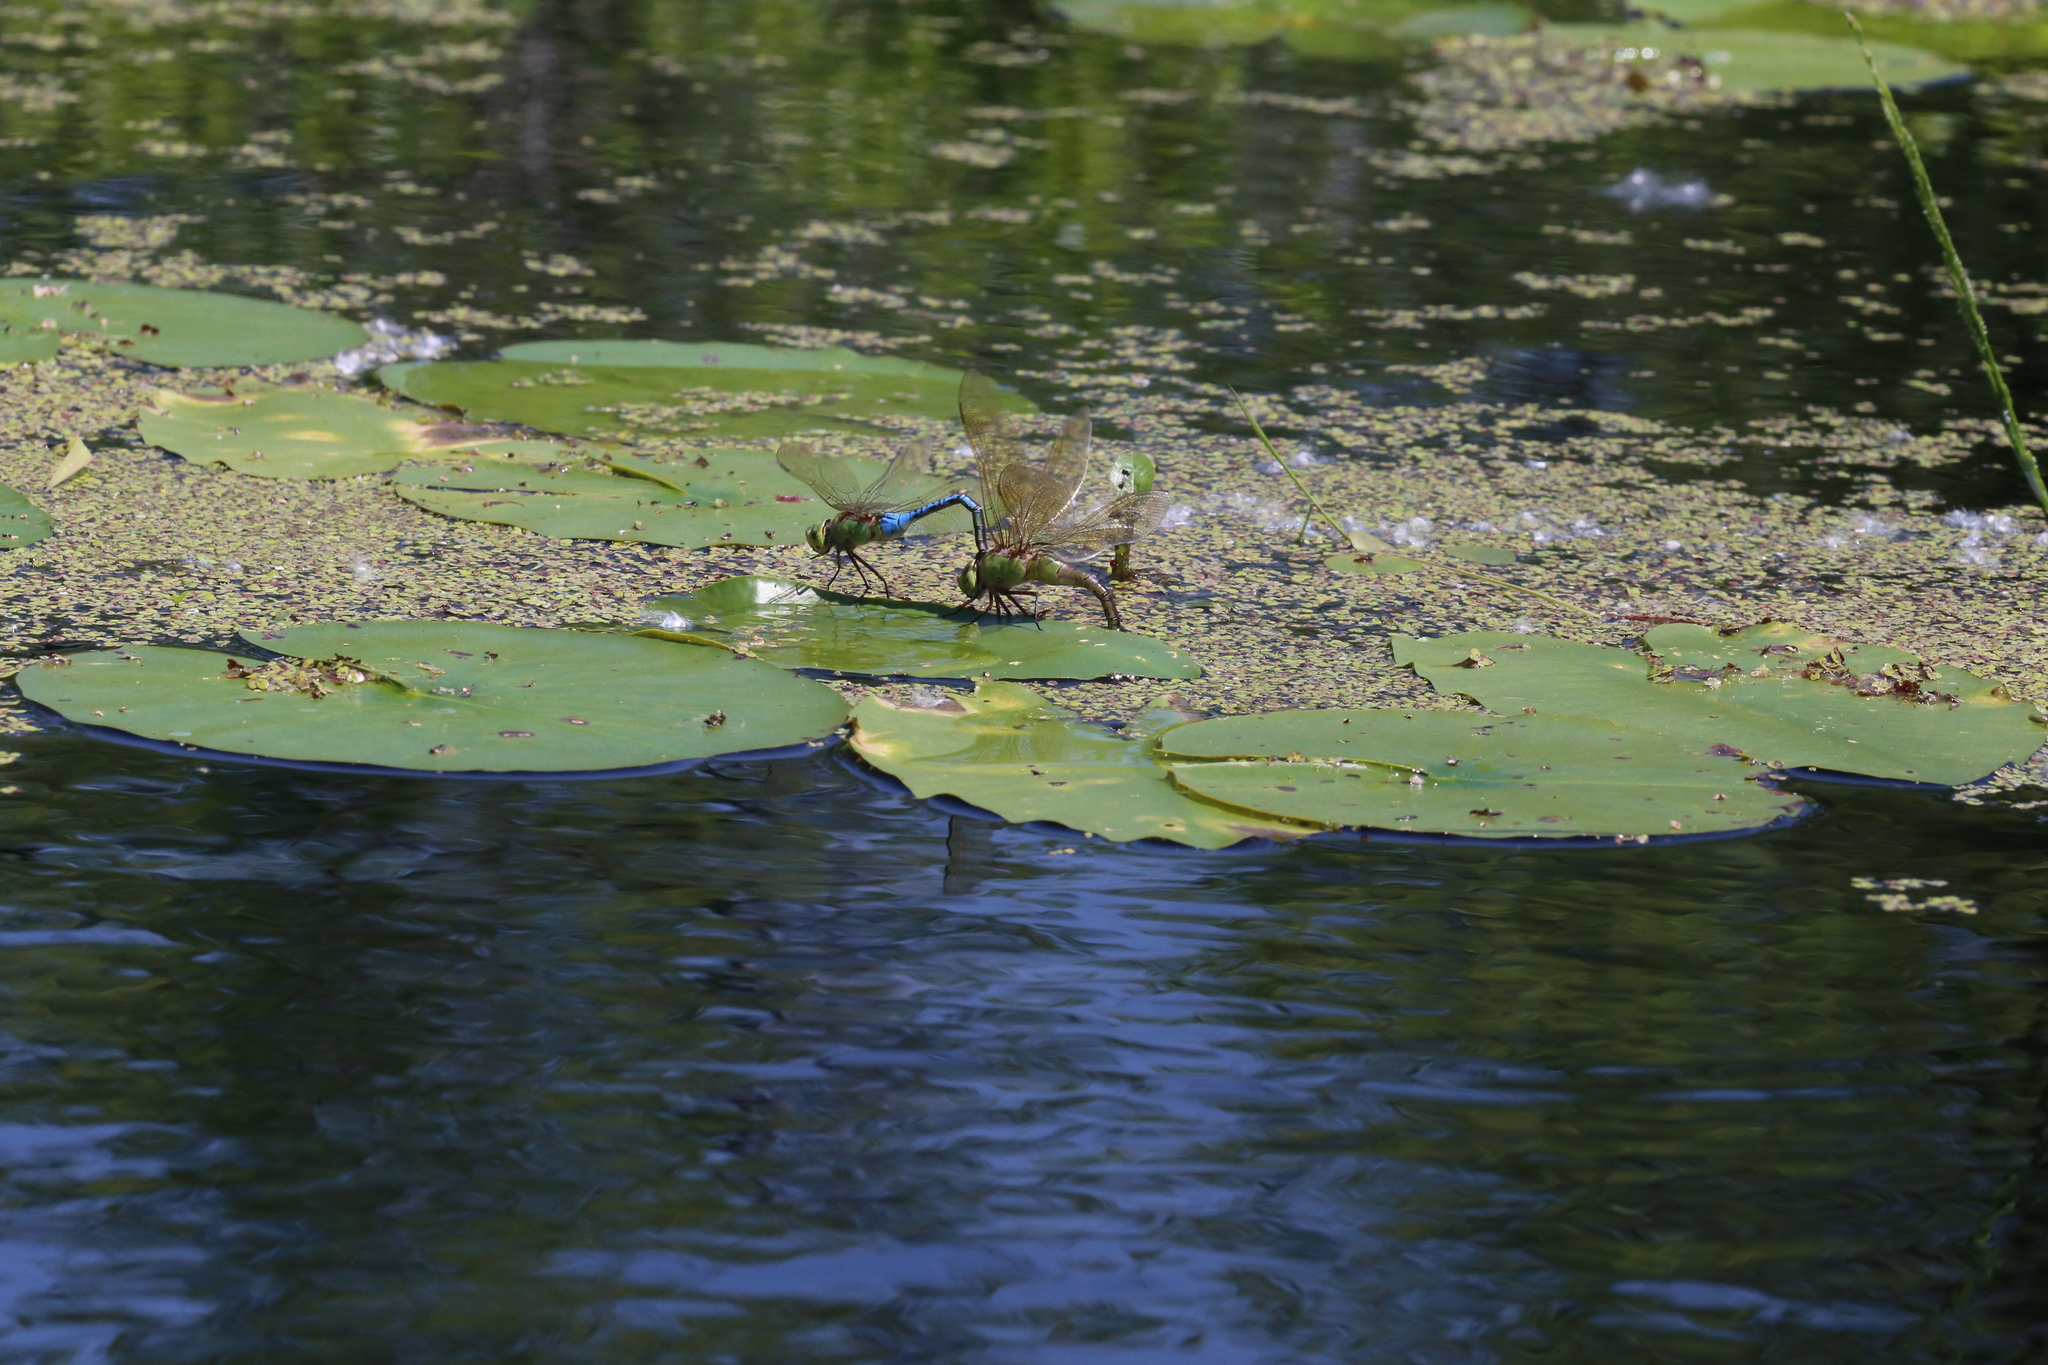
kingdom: Animalia
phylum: Arthropoda
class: Insecta
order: Odonata
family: Aeshnidae
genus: Anax
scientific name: Anax junius
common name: Common green darner
